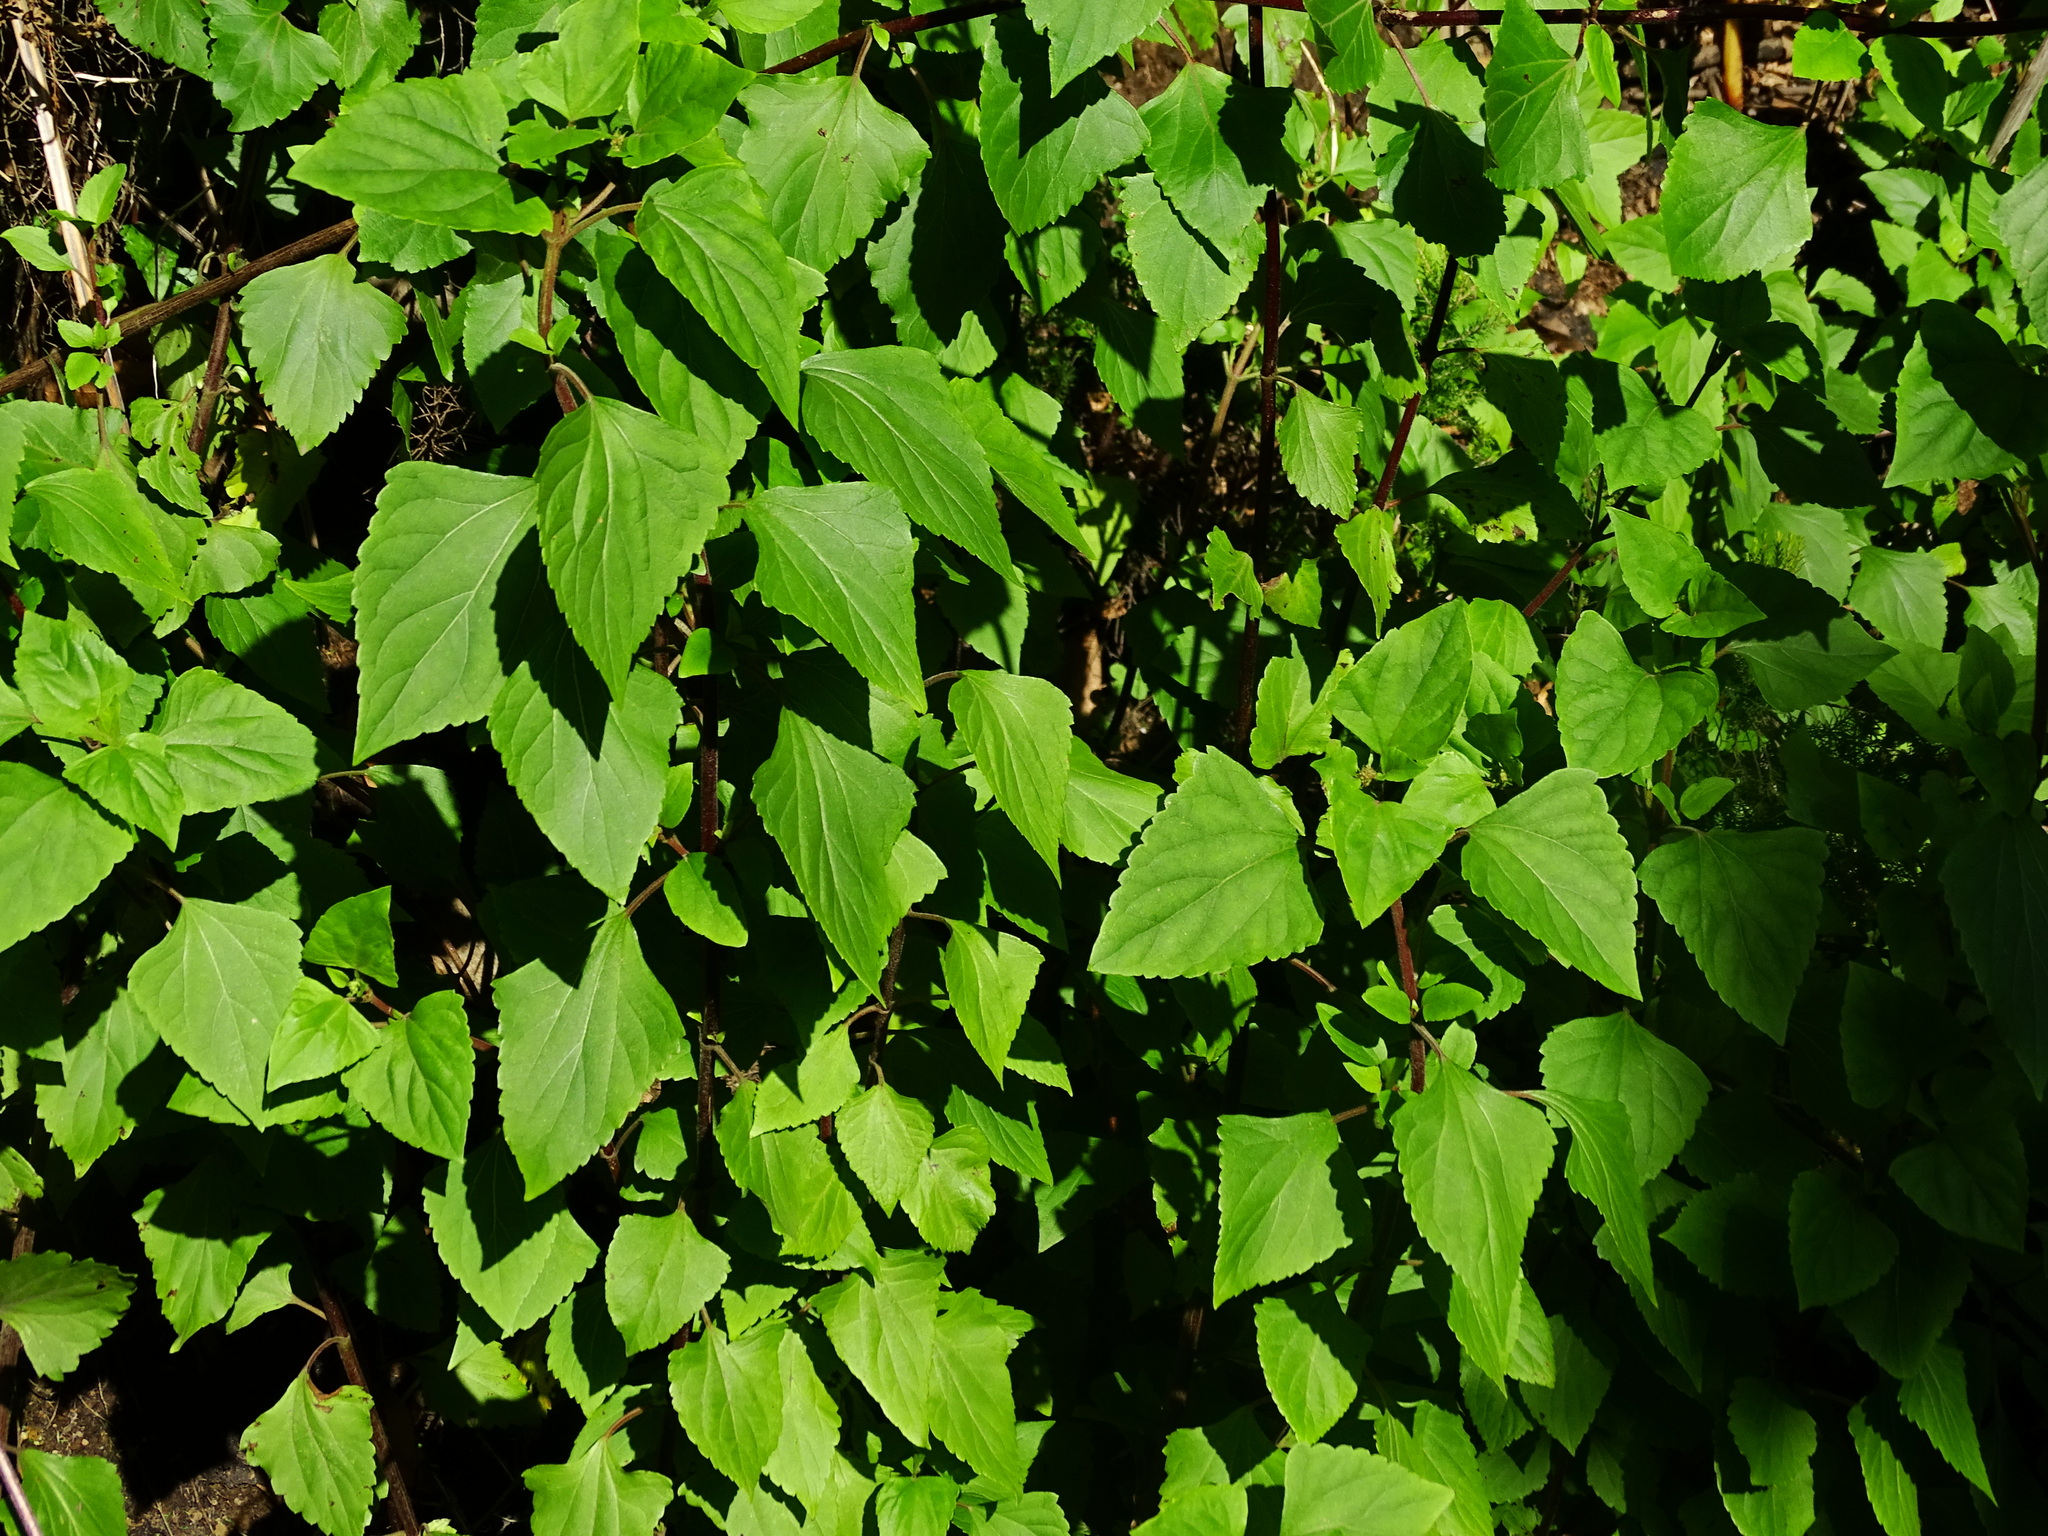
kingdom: Plantae
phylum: Tracheophyta
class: Magnoliopsida
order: Asterales
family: Asteraceae
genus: Ageratina
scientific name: Ageratina adenophora
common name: Sticky snakeroot
